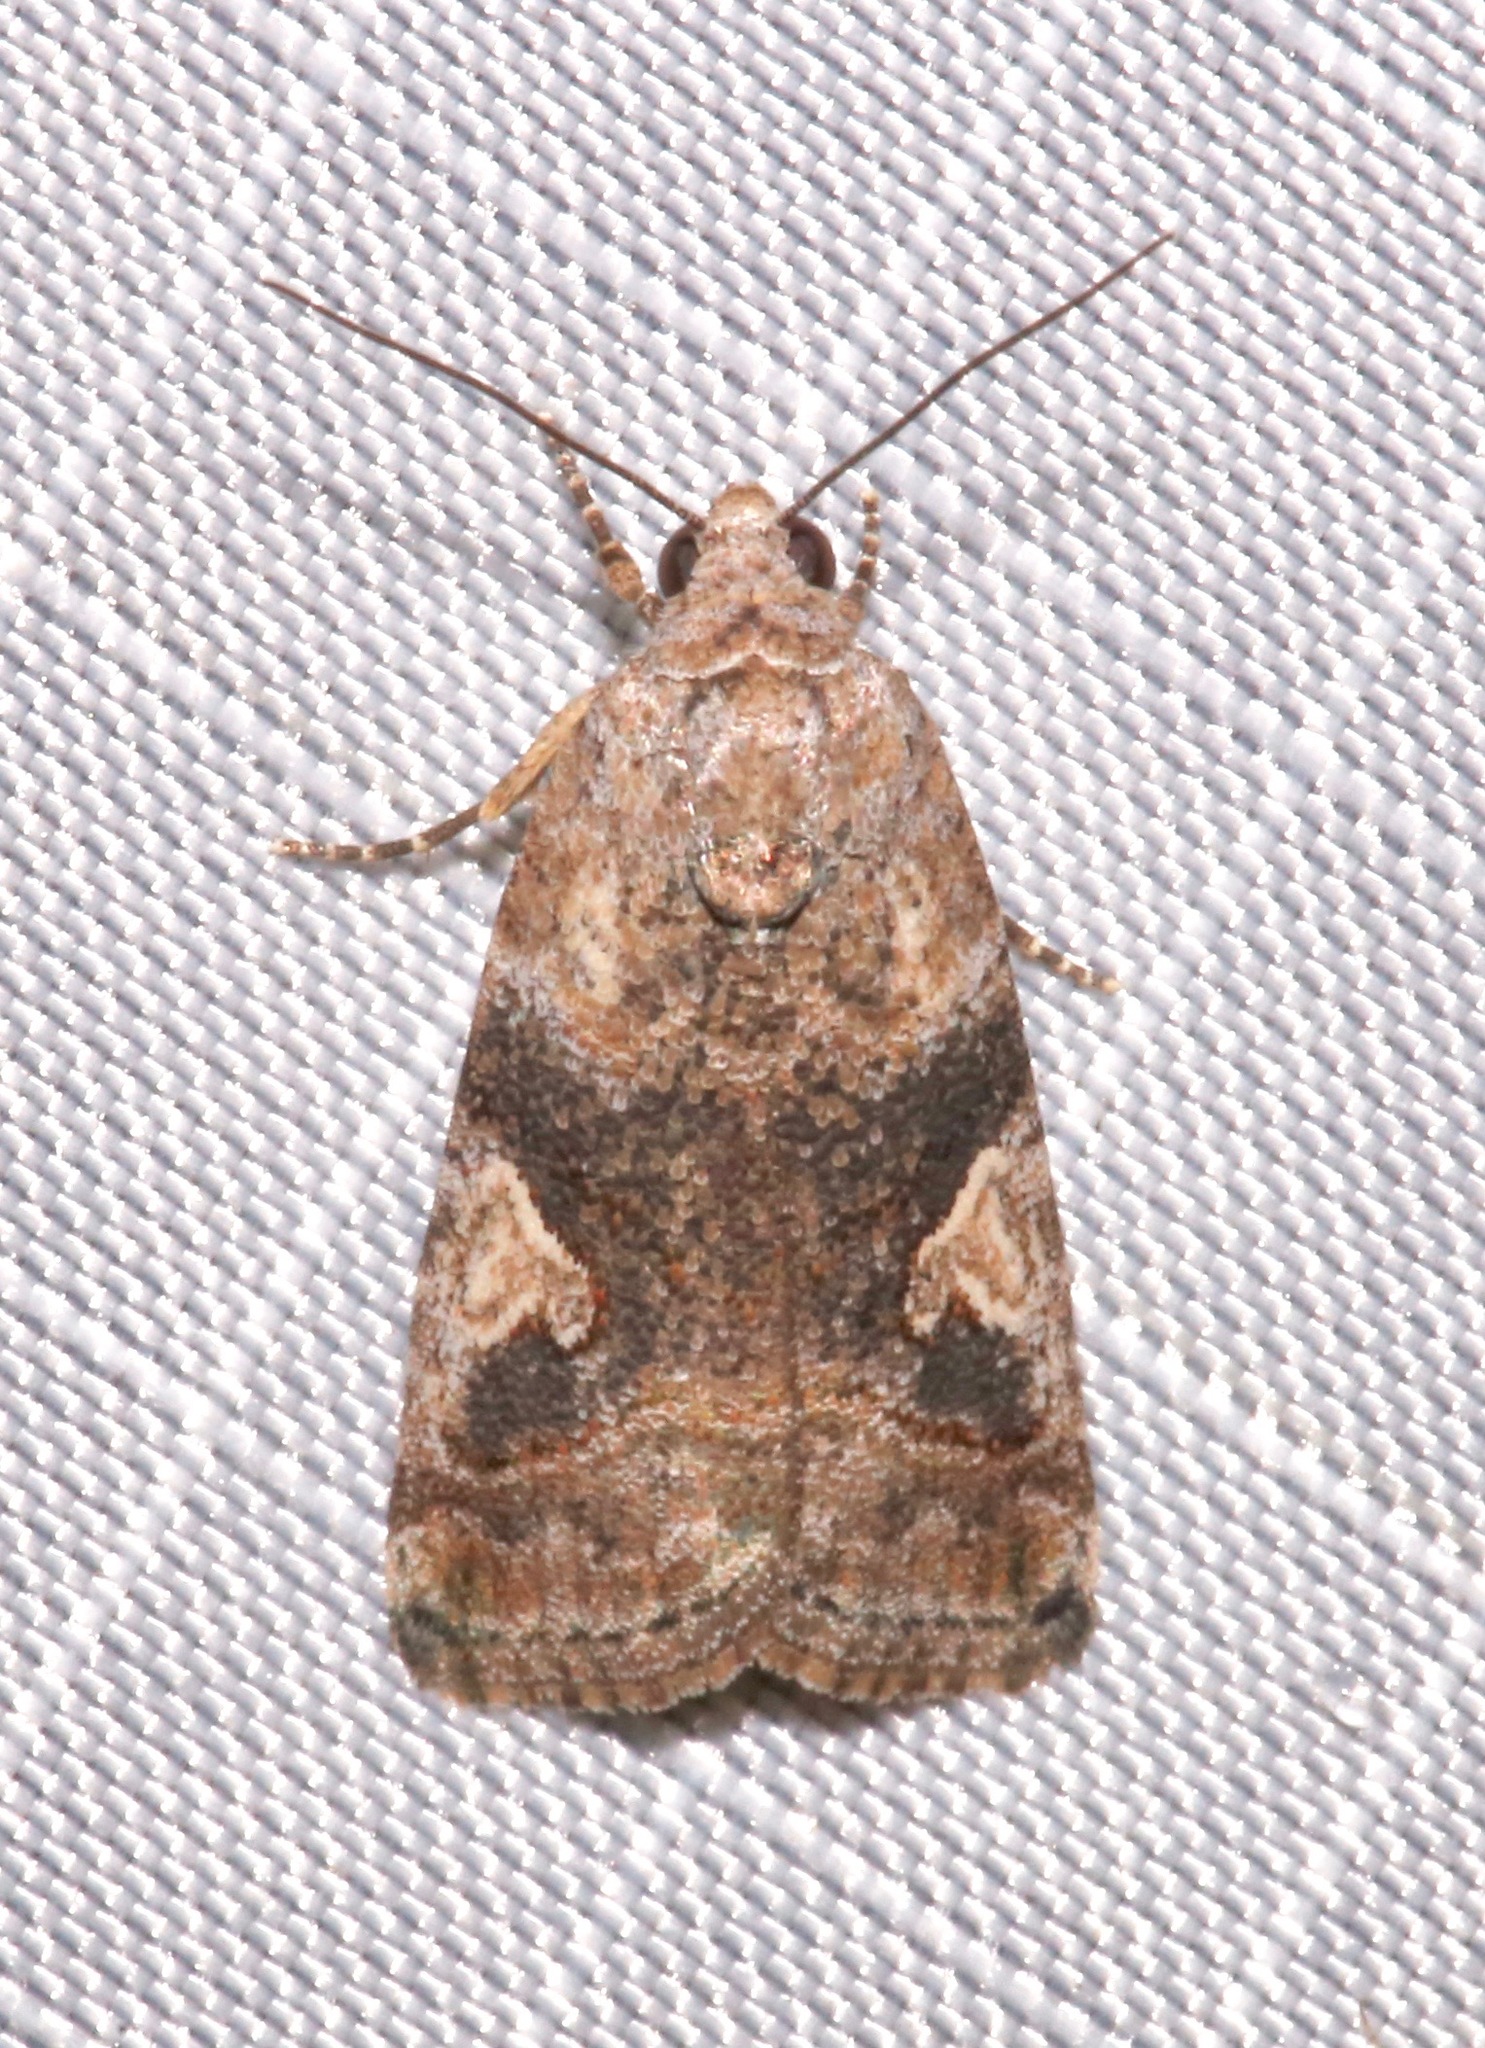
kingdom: Animalia
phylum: Arthropoda
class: Insecta
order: Lepidoptera
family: Noctuidae
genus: Metaponpneumata
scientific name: Metaponpneumata rogenhoferi
